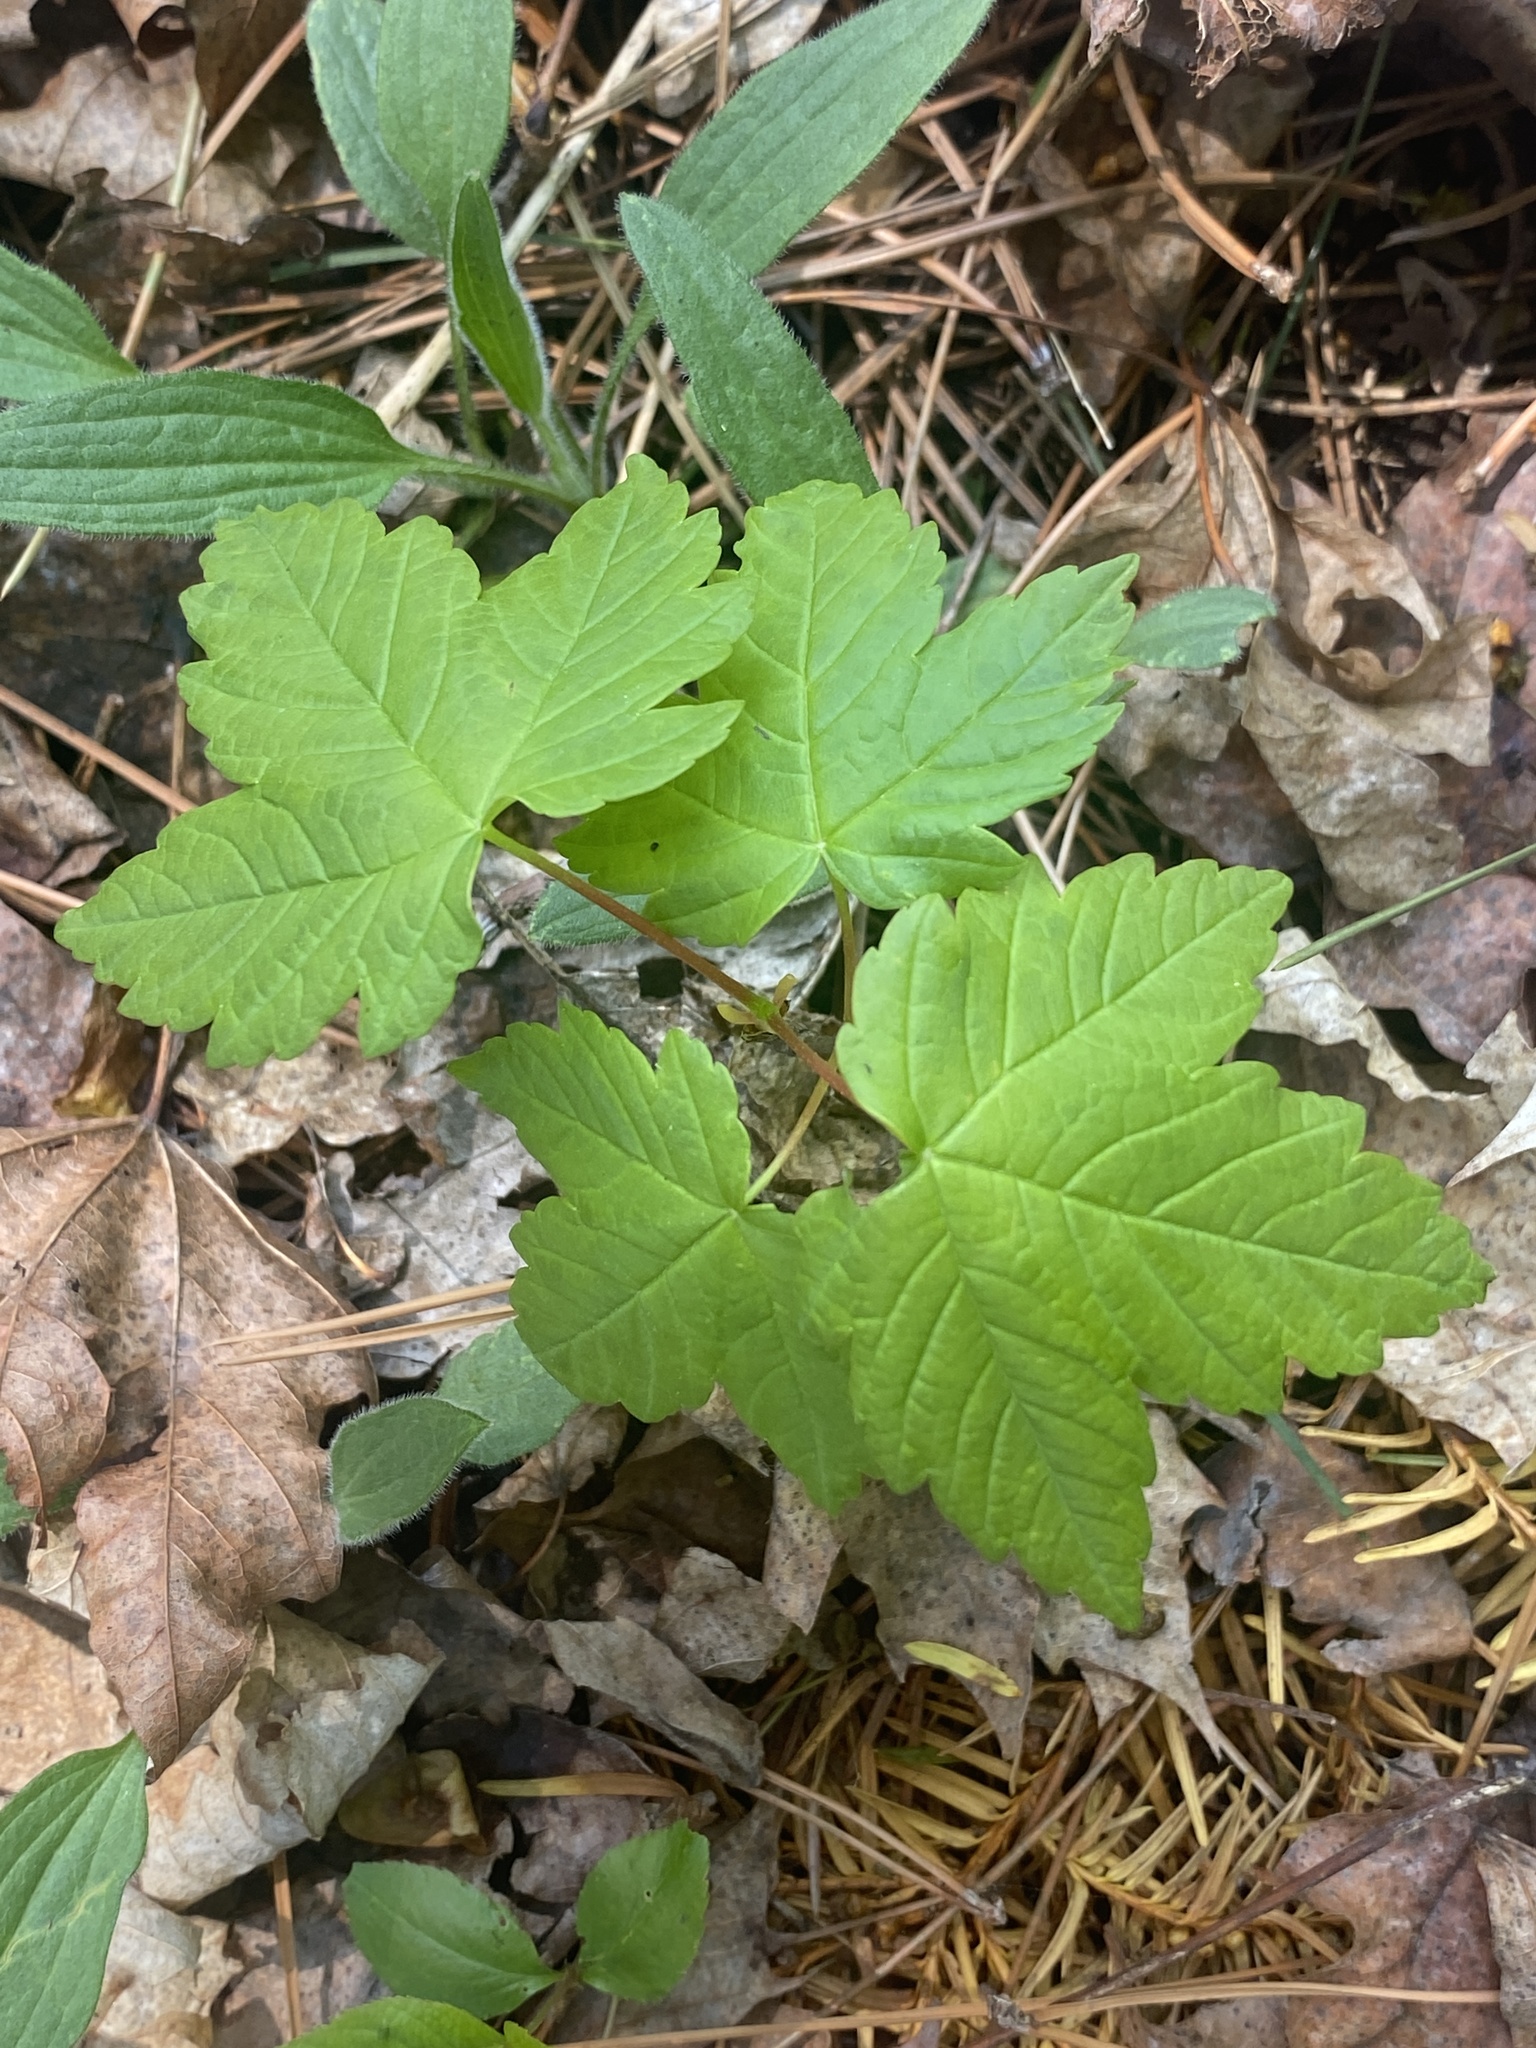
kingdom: Plantae
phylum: Tracheophyta
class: Magnoliopsida
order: Sapindales
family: Sapindaceae
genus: Acer
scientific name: Acer pseudoplatanus
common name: Sycamore
